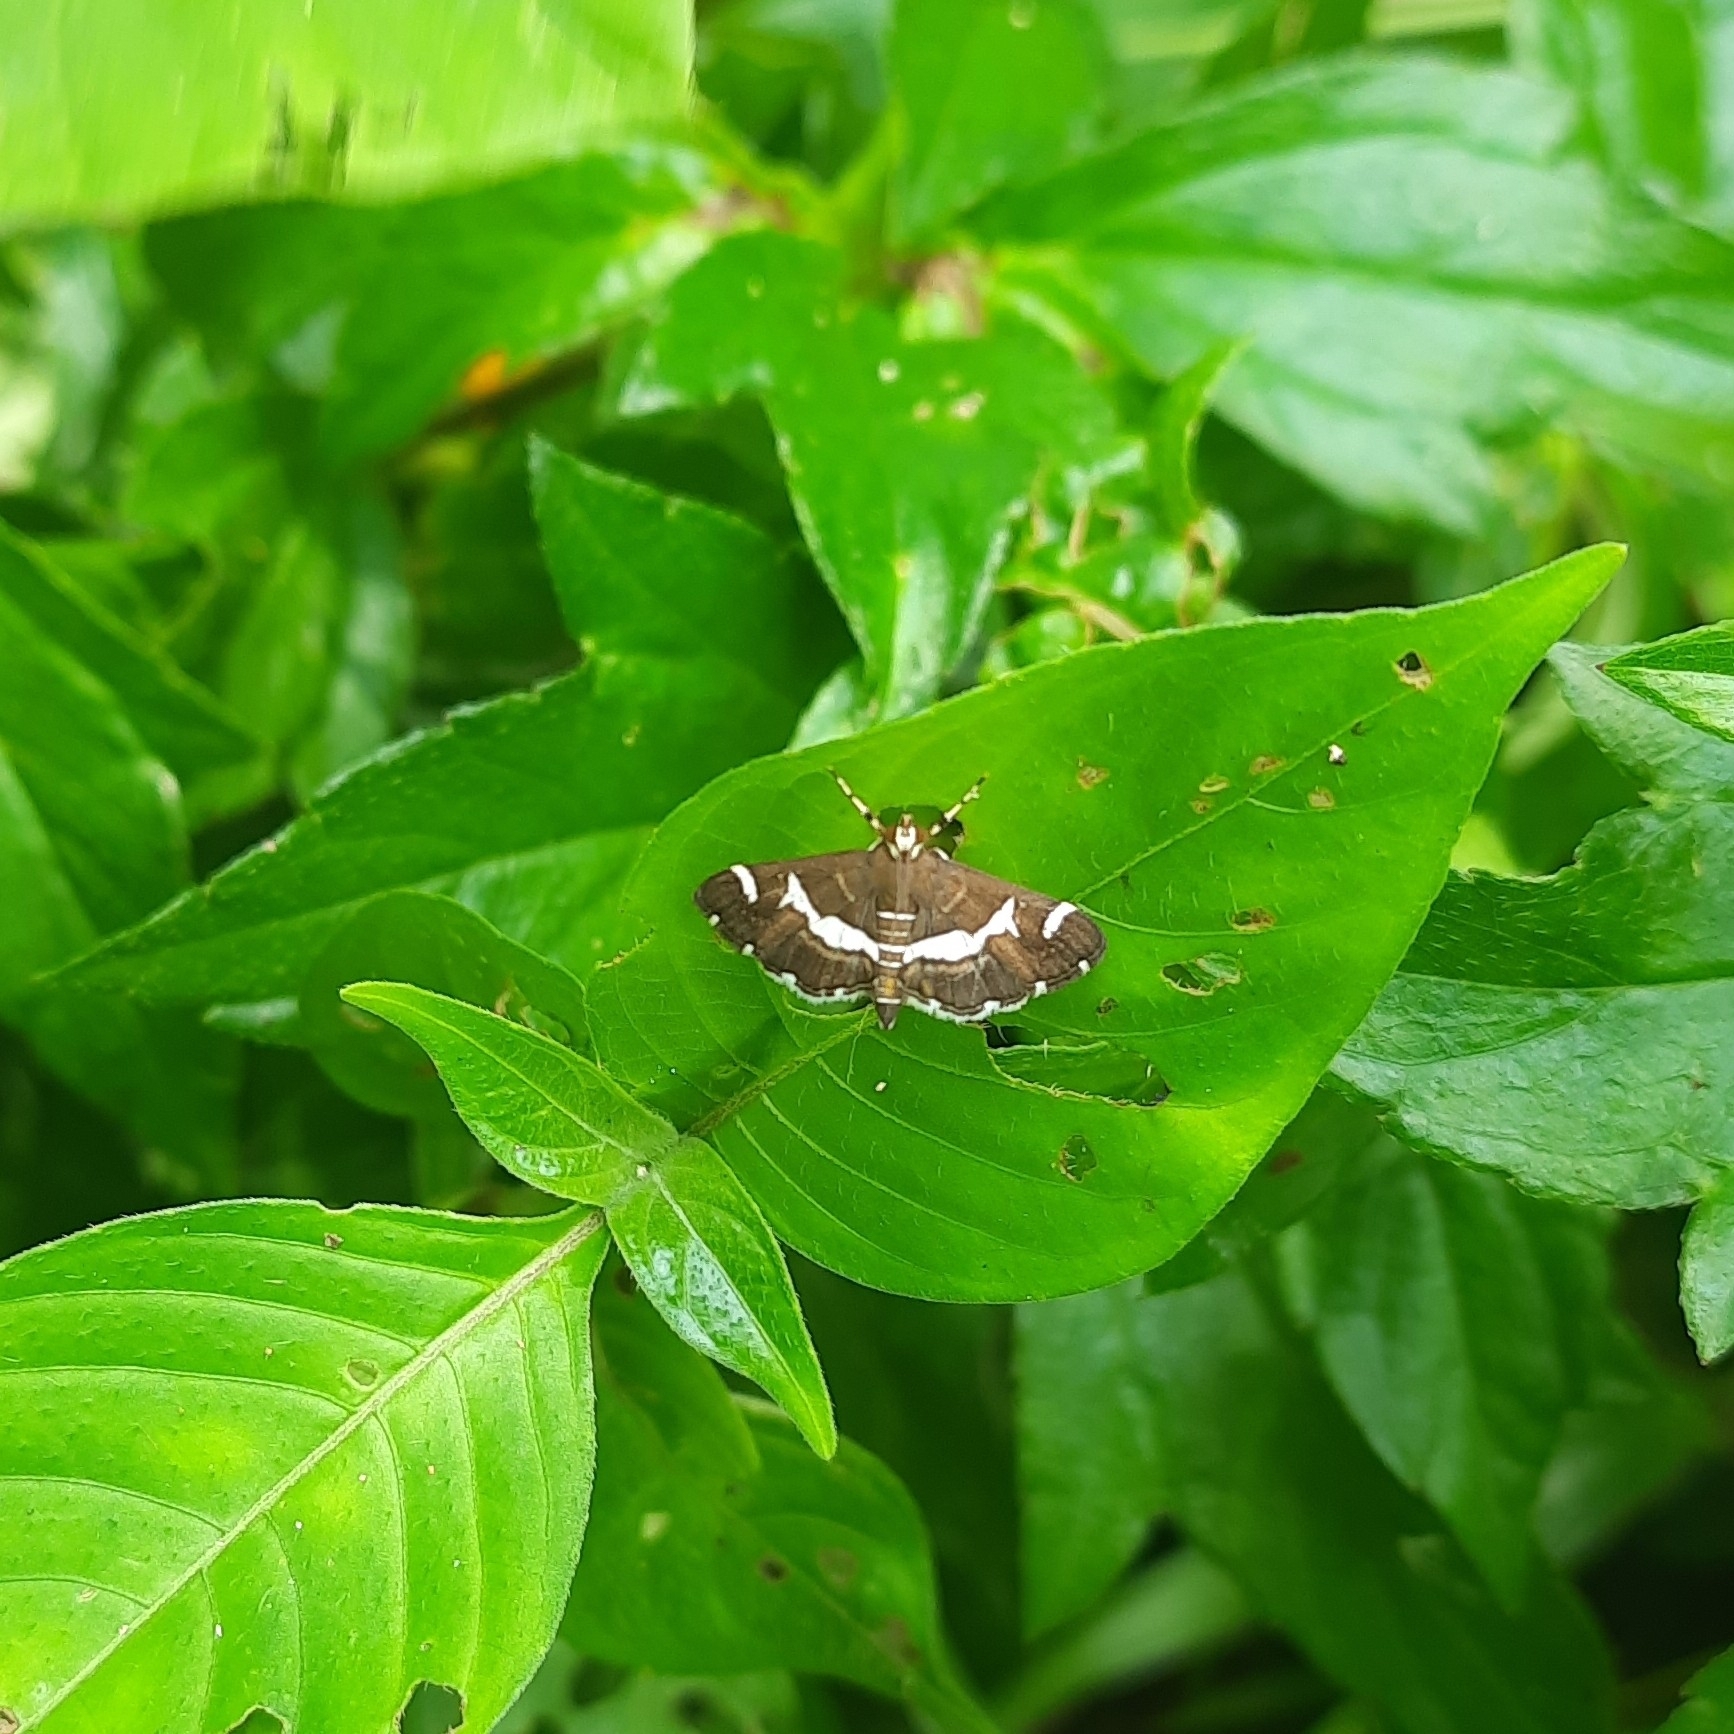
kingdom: Animalia
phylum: Arthropoda
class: Insecta
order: Lepidoptera
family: Crambidae
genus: Spoladea
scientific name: Spoladea recurvalis
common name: Beet webworm moth
